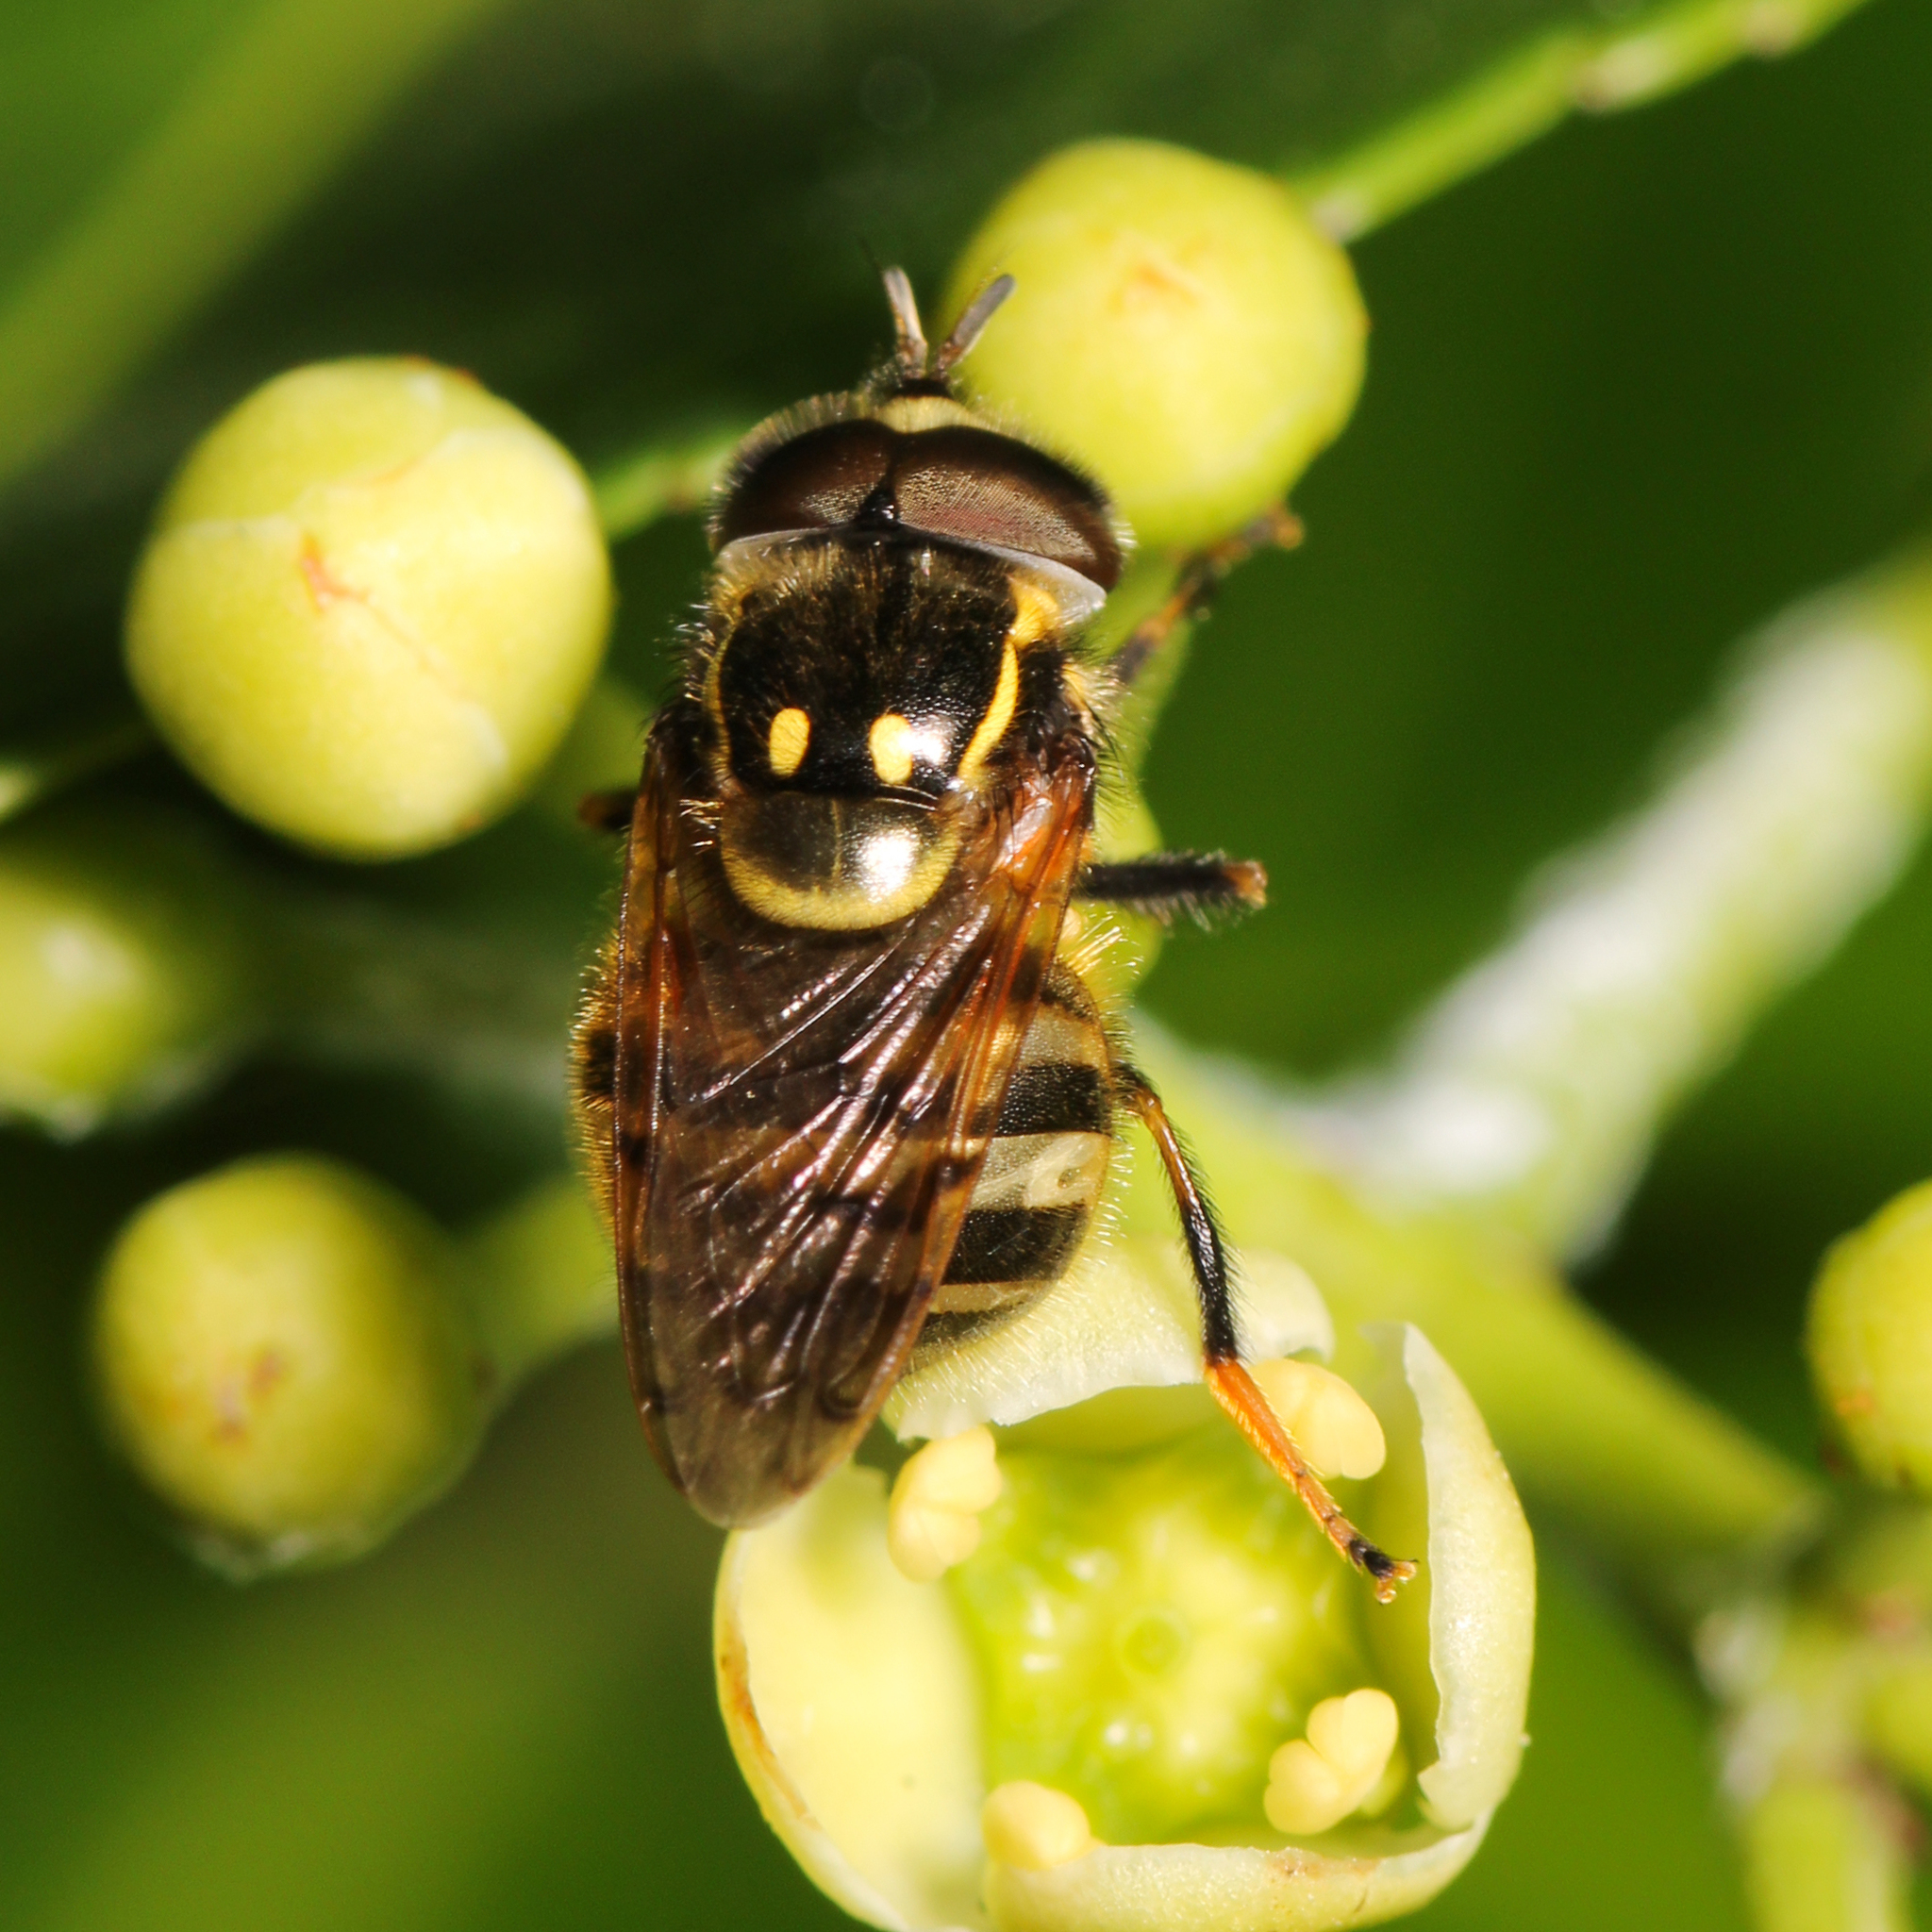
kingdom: Animalia
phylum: Arthropoda
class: Insecta
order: Diptera
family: Syrphidae
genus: Copestylum
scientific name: Copestylum vittatum
